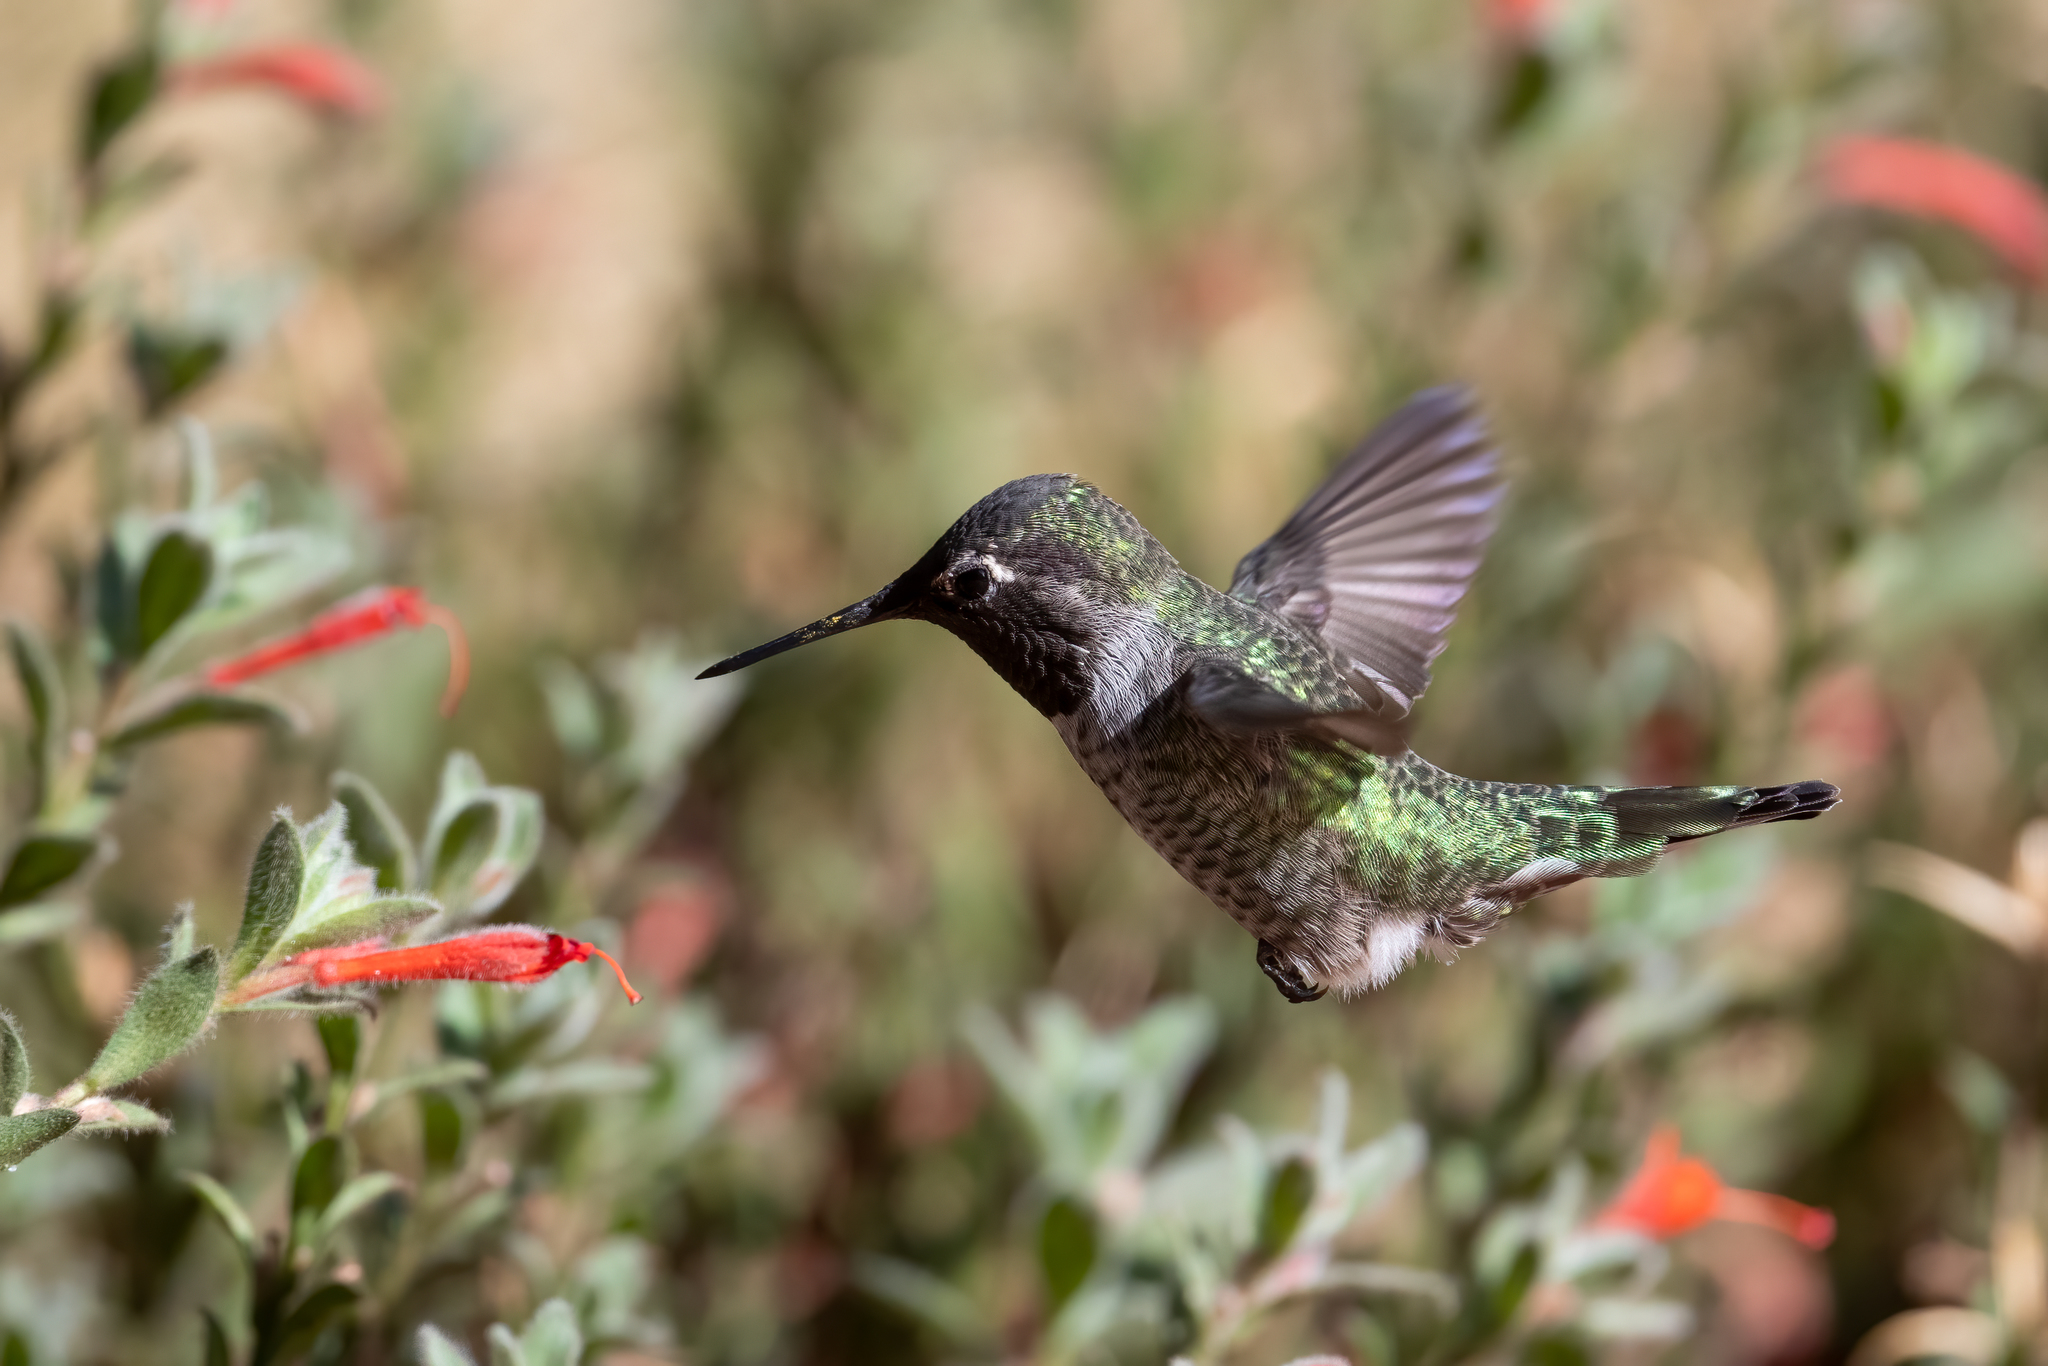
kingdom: Animalia
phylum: Chordata
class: Aves
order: Apodiformes
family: Trochilidae
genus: Calypte
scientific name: Calypte anna
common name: Anna's hummingbird
